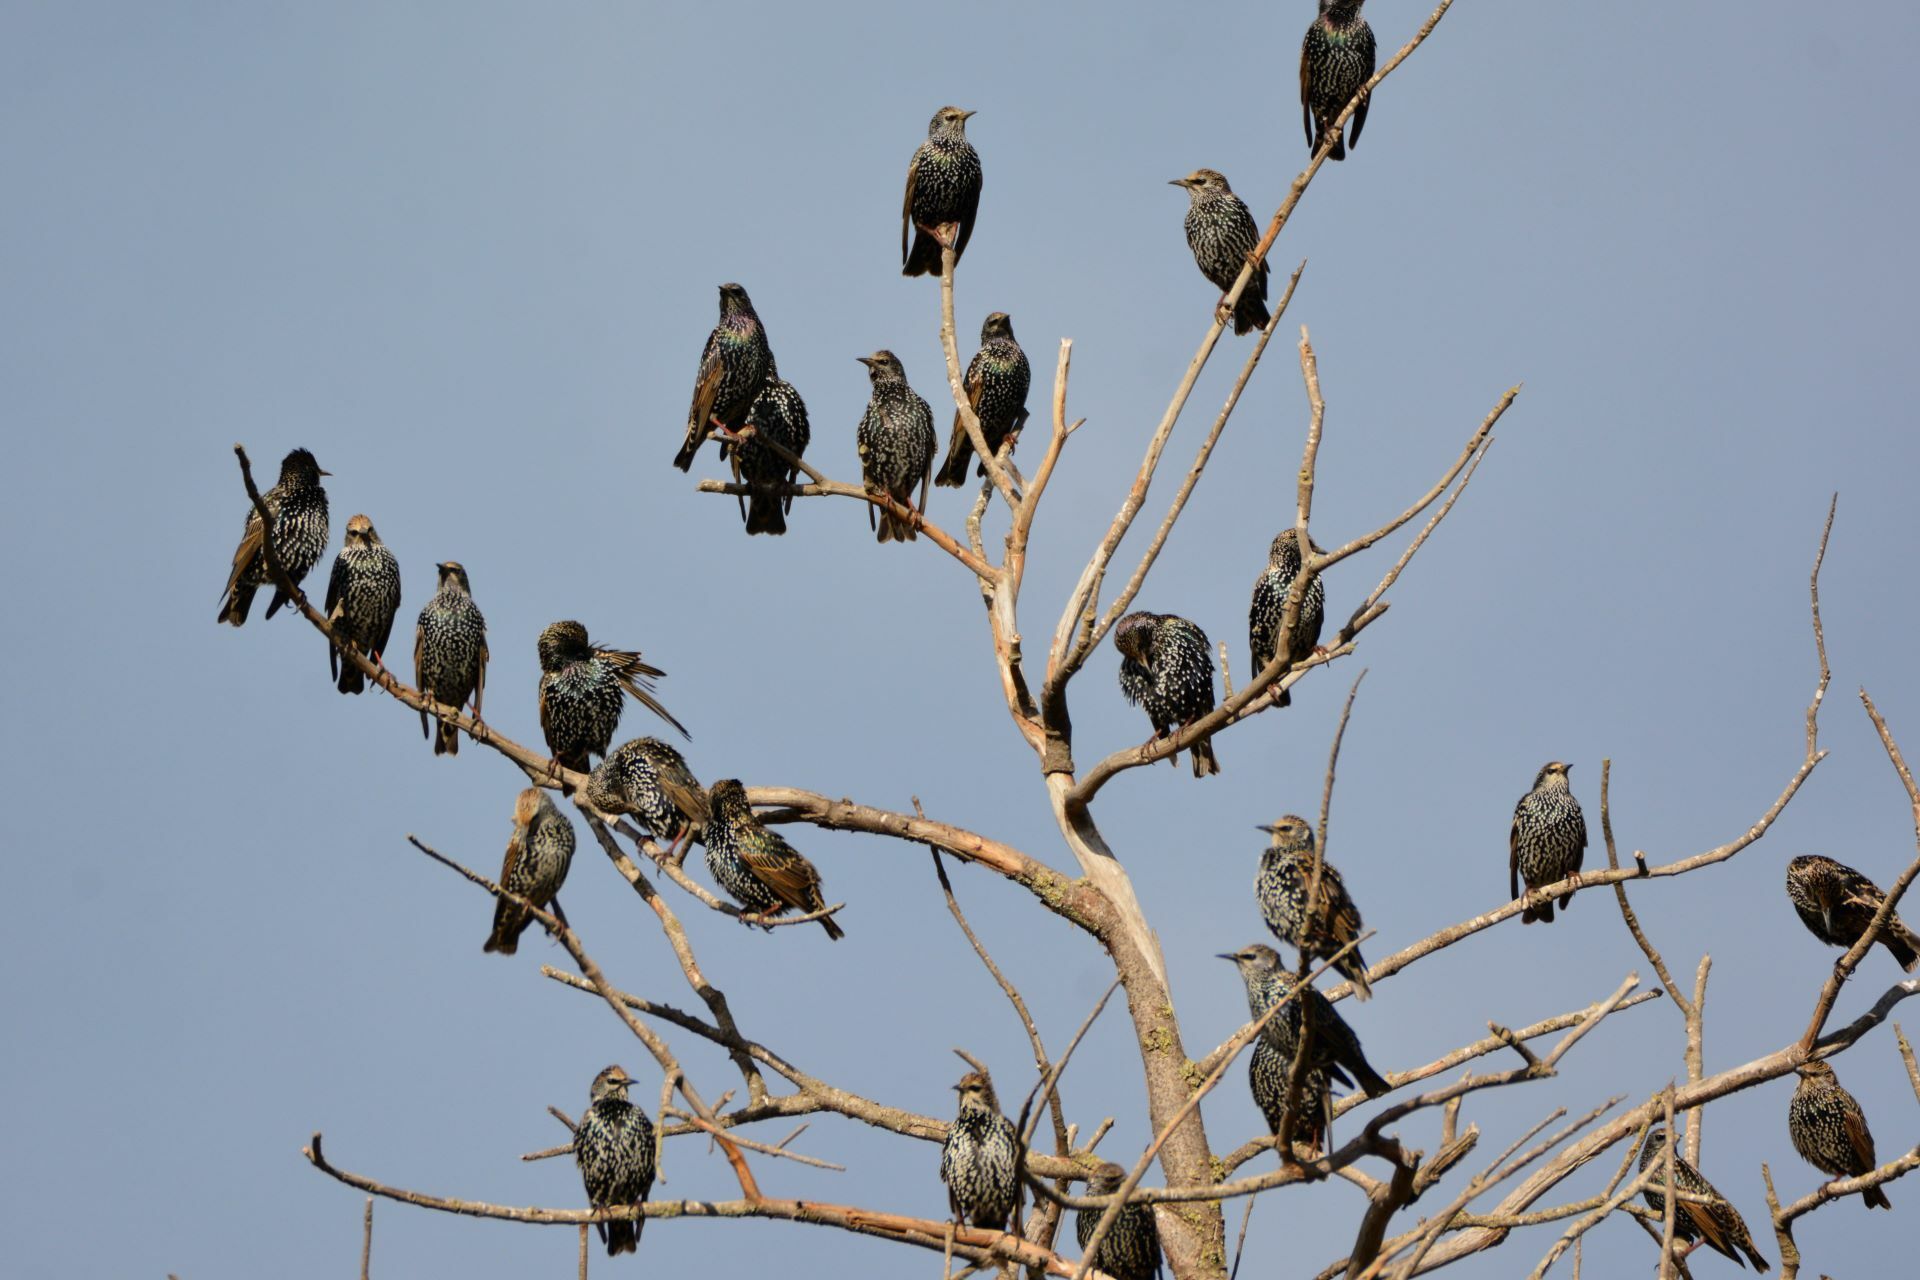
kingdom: Animalia
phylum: Chordata
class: Aves
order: Passeriformes
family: Sturnidae
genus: Sturnus
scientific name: Sturnus vulgaris
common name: Common starling
